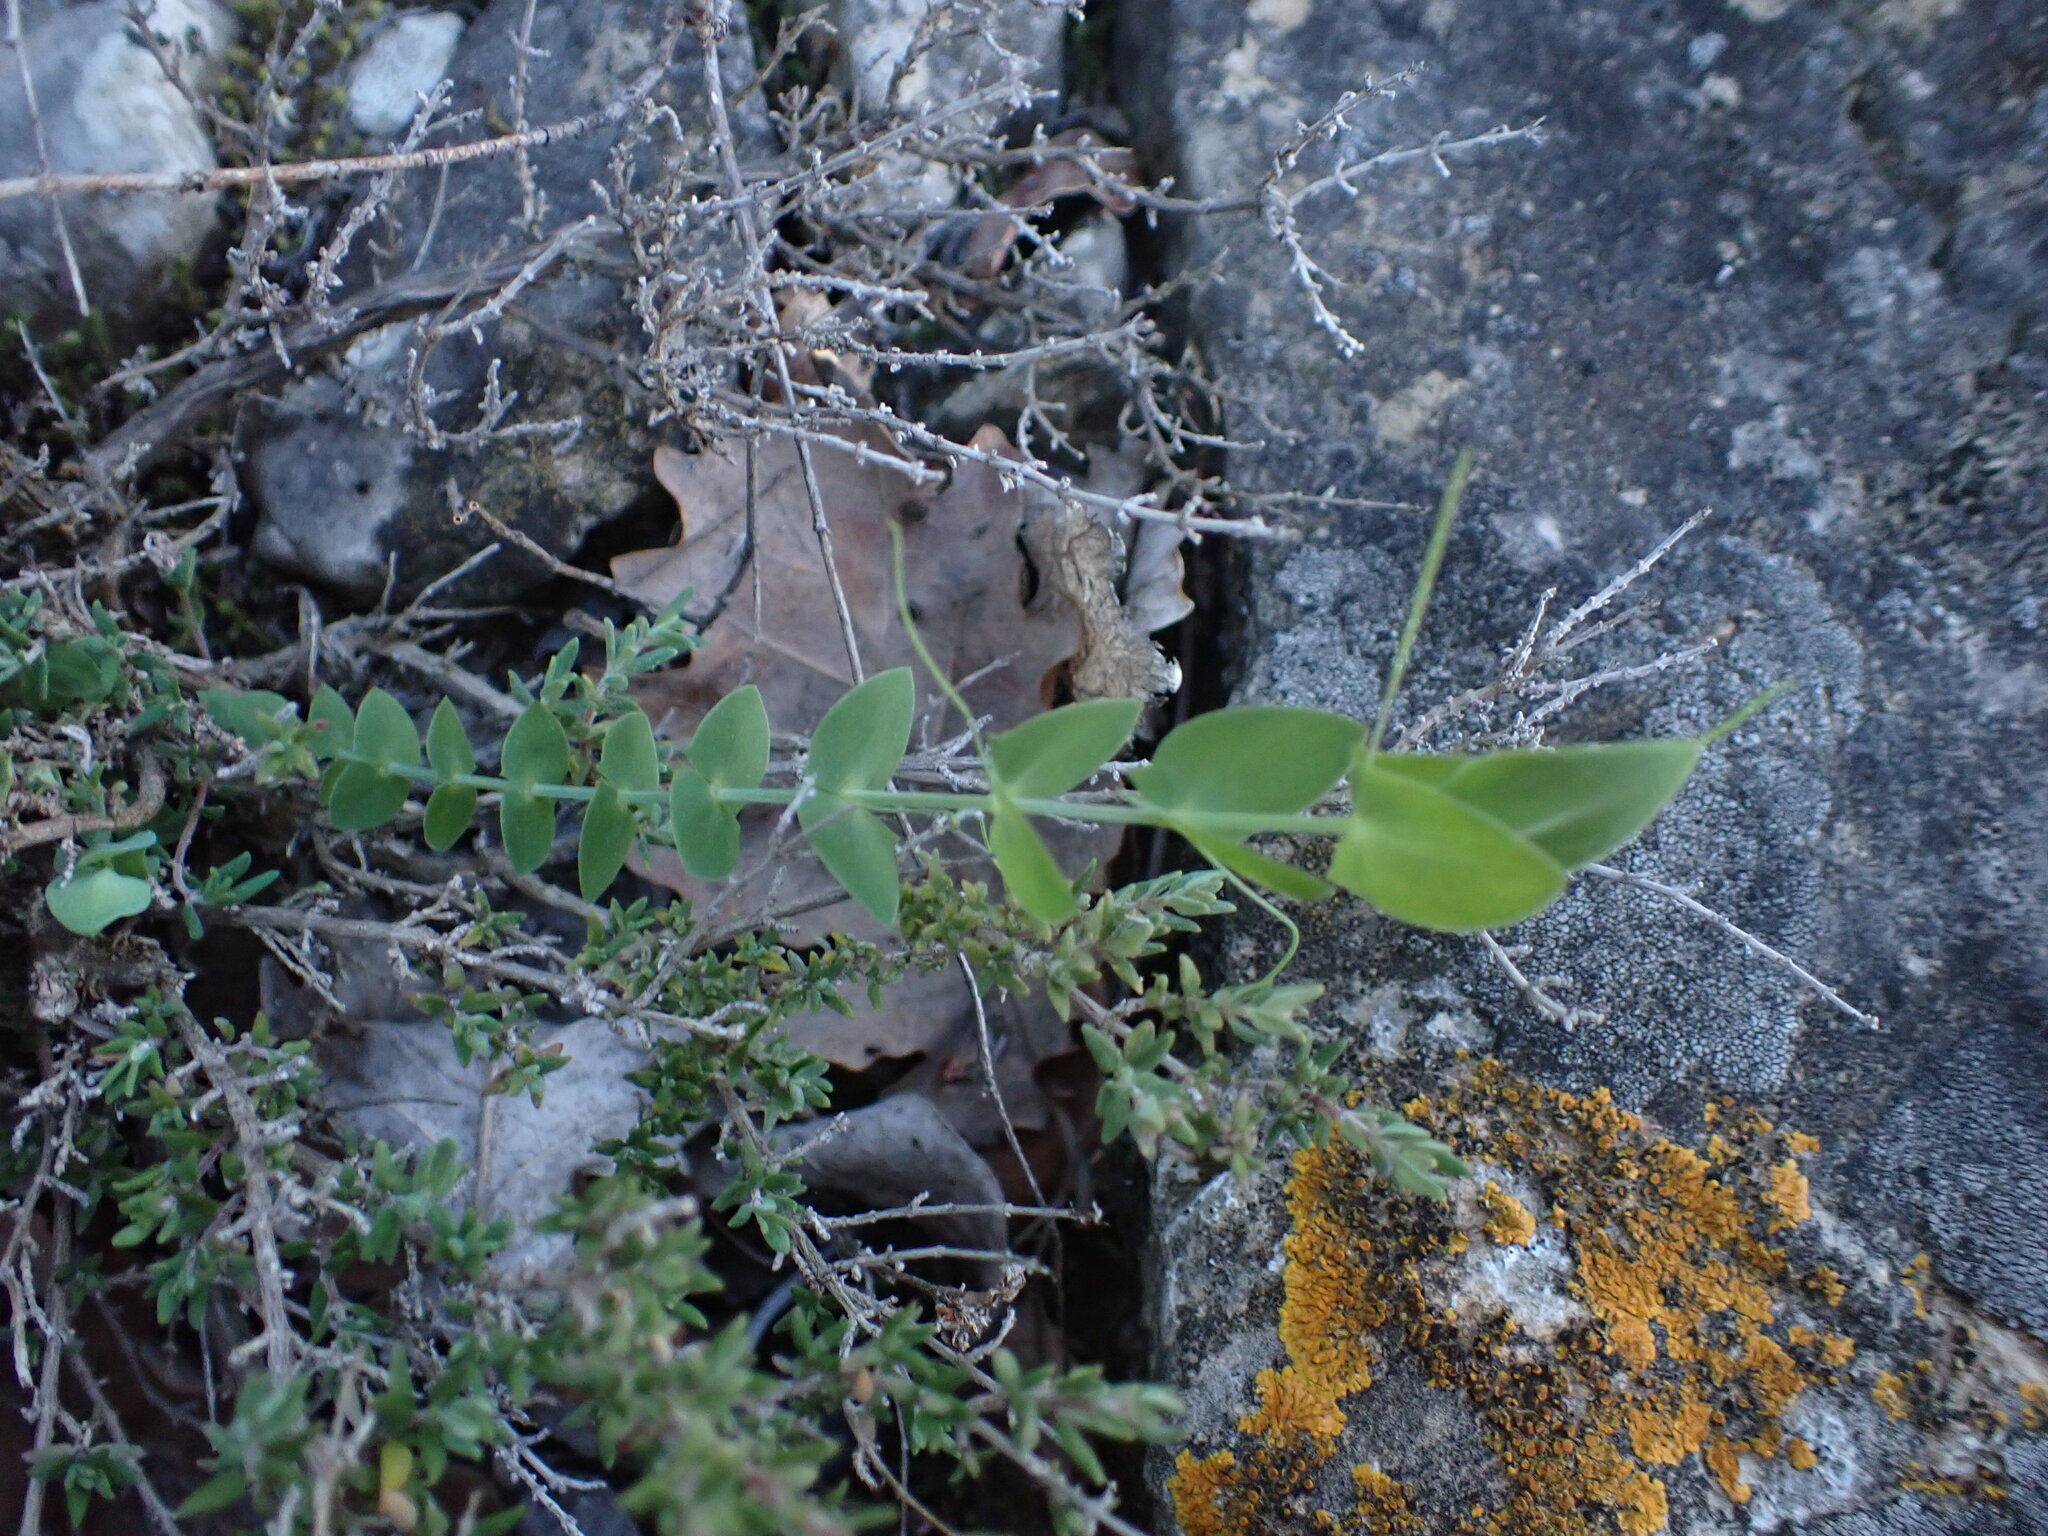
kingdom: Plantae
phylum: Tracheophyta
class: Magnoliopsida
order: Fabales
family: Fabaceae
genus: Lathyrus
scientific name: Lathyrus aphaca
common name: Yellow vetchling
